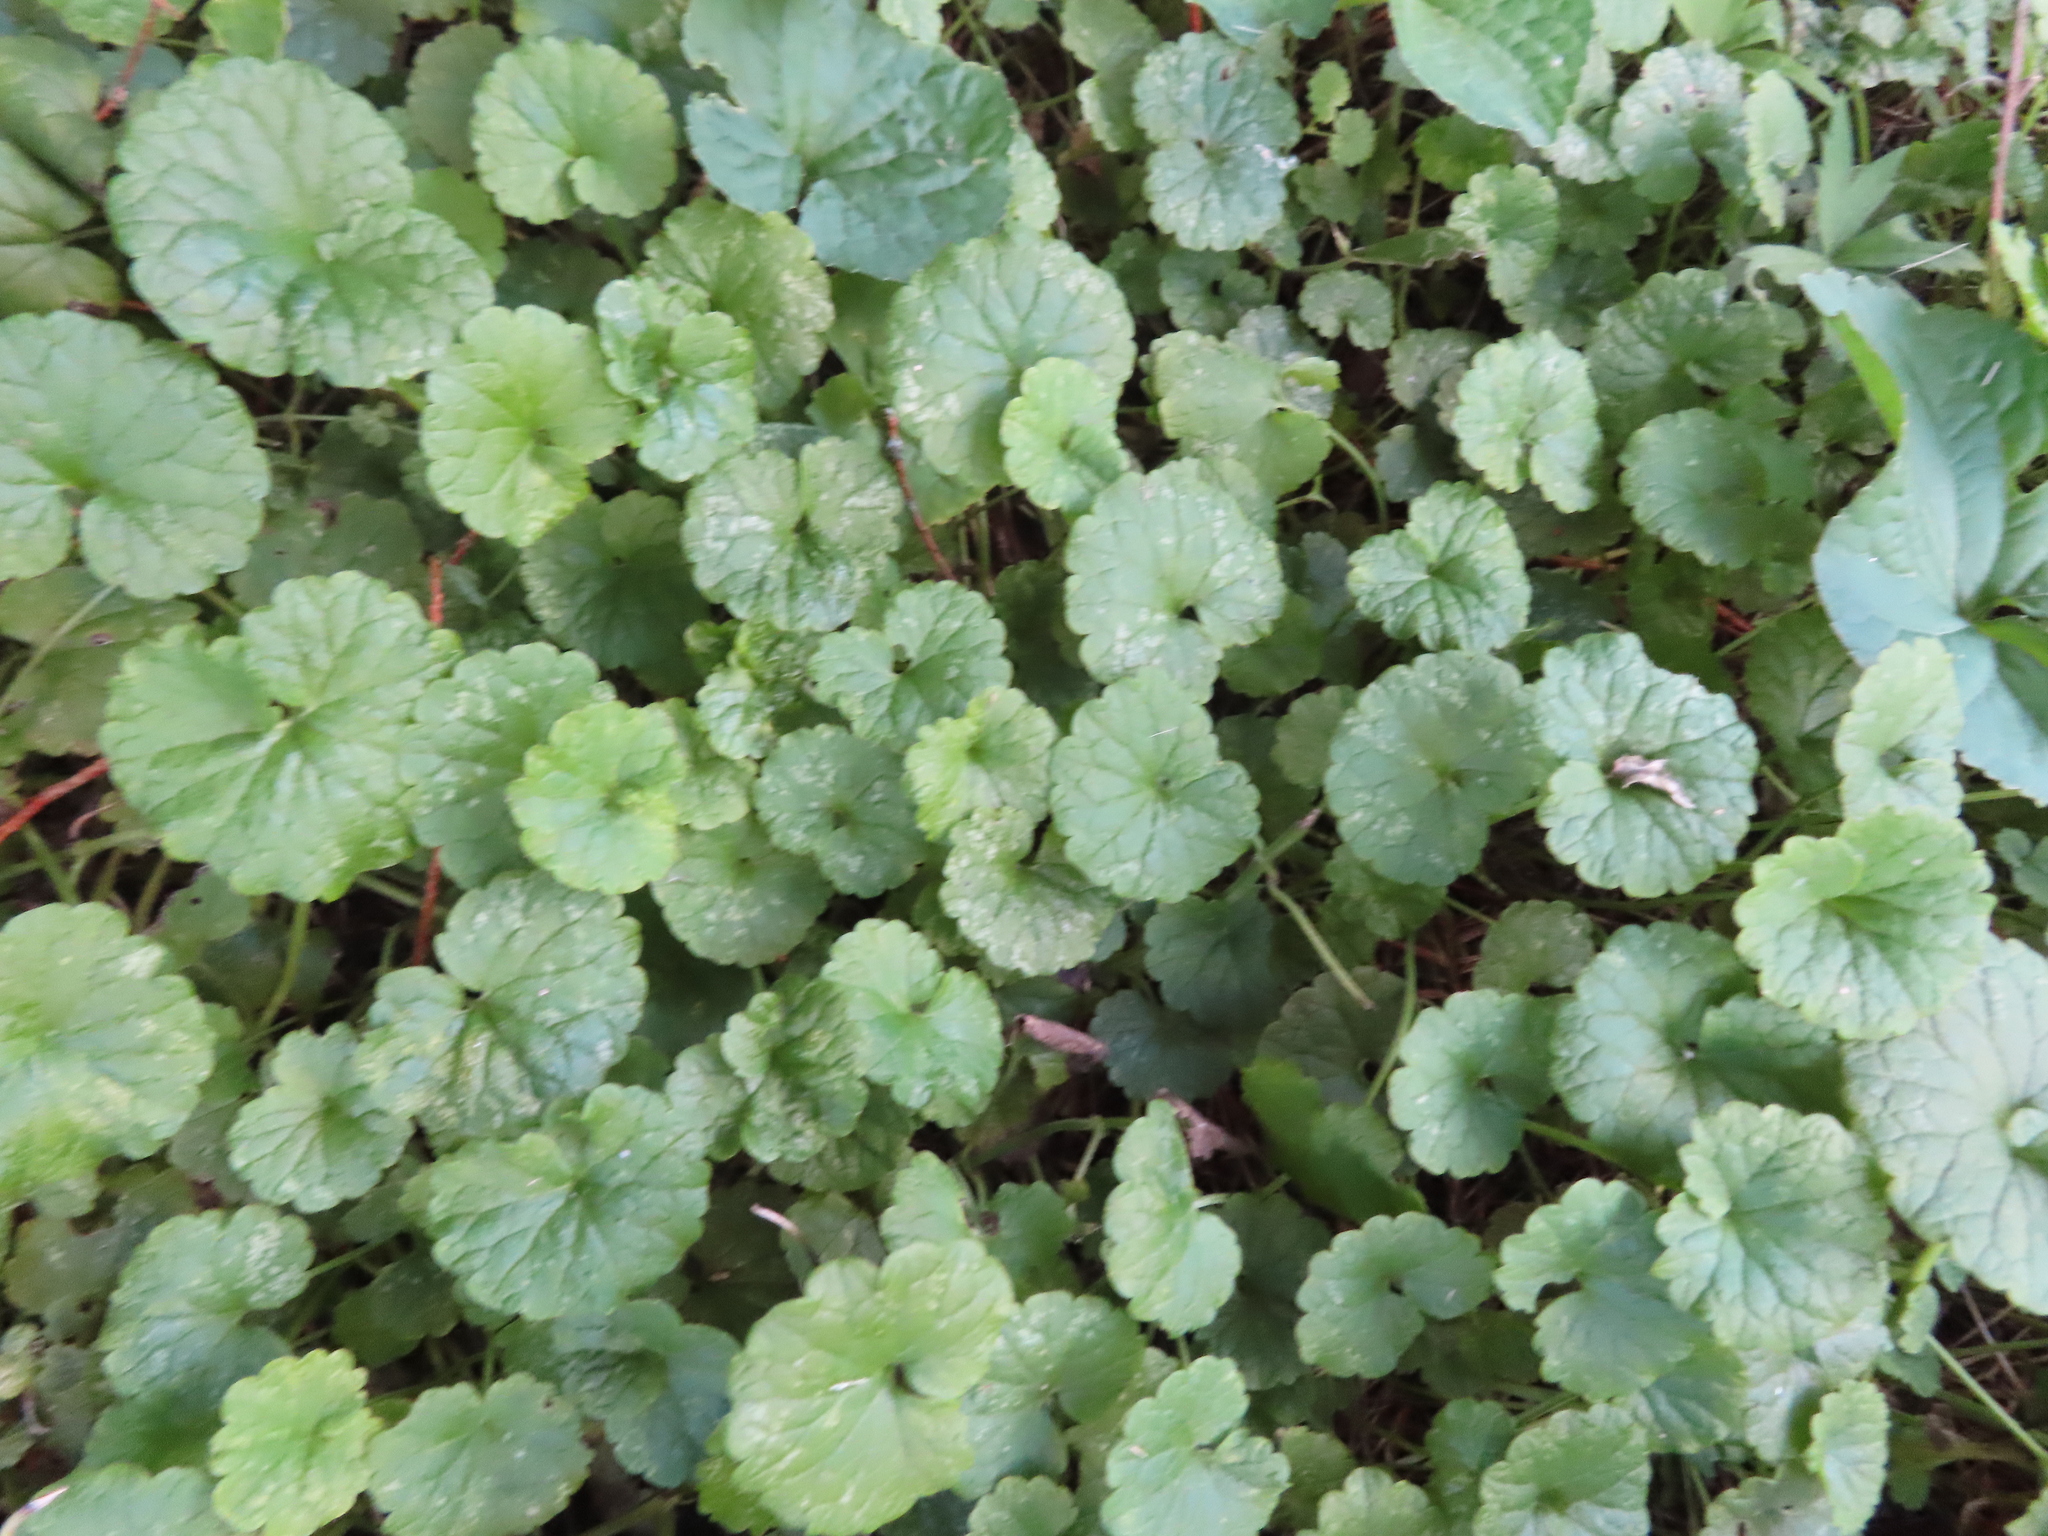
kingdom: Plantae
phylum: Tracheophyta
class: Magnoliopsida
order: Lamiales
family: Lamiaceae
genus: Glechoma
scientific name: Glechoma hederacea
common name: Ground ivy
